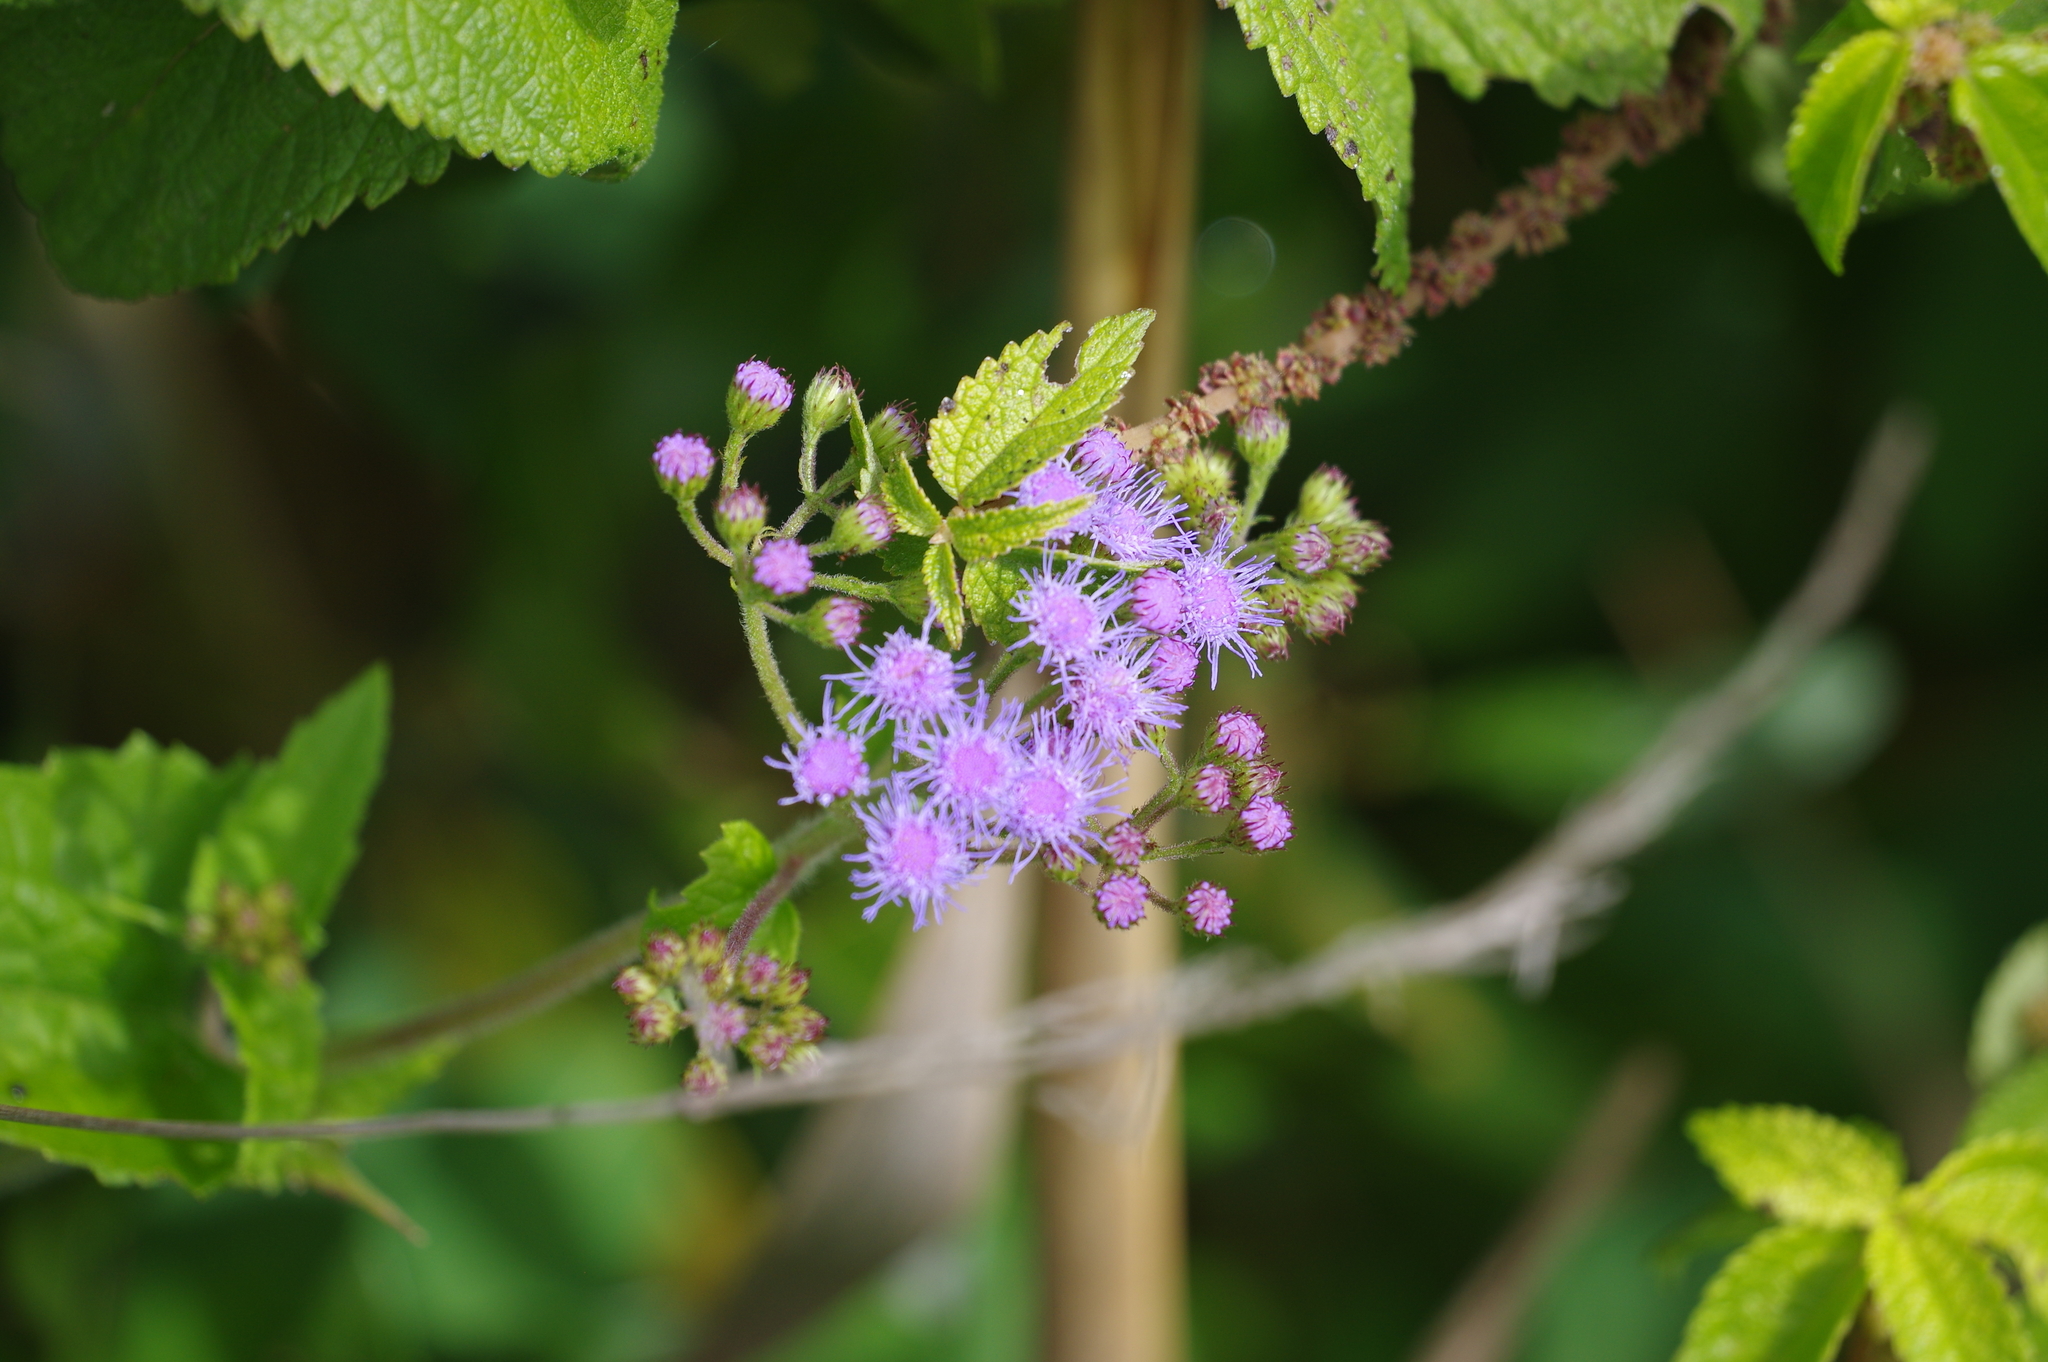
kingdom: Plantae
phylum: Tracheophyta
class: Magnoliopsida
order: Asterales
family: Asteraceae
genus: Conoclinium
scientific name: Conoclinium coelestinum
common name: Blue mistflower
